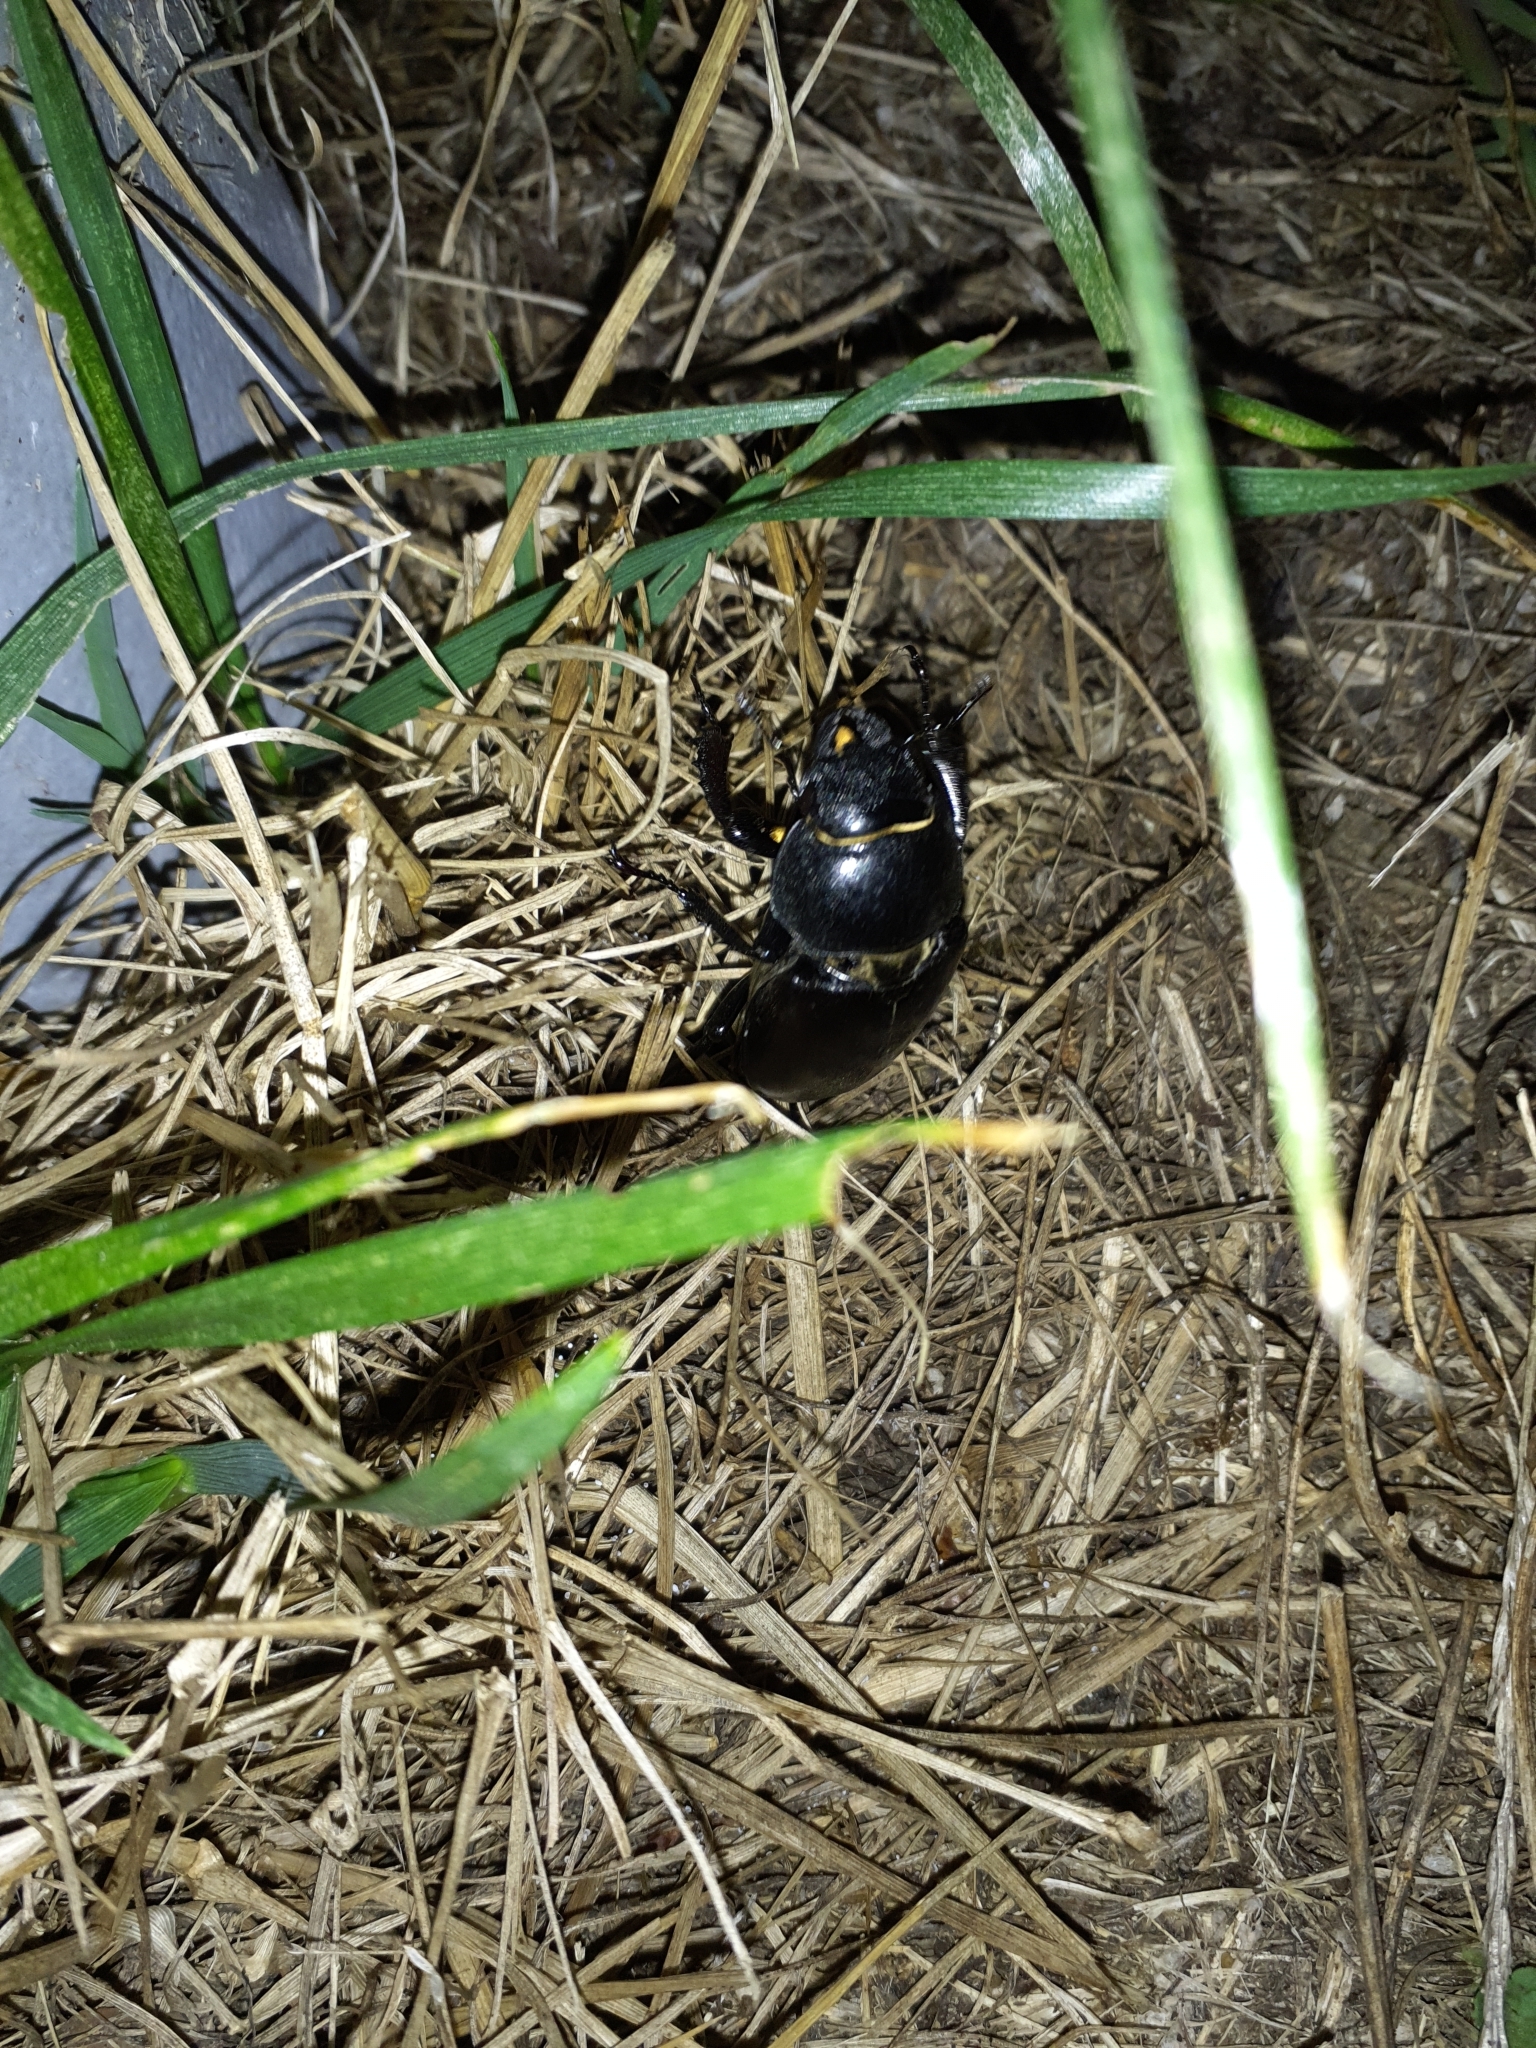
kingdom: Animalia
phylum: Arthropoda
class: Insecta
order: Coleoptera
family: Lucanidae
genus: Lucanus
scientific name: Lucanus cervus
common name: Stag beetle
